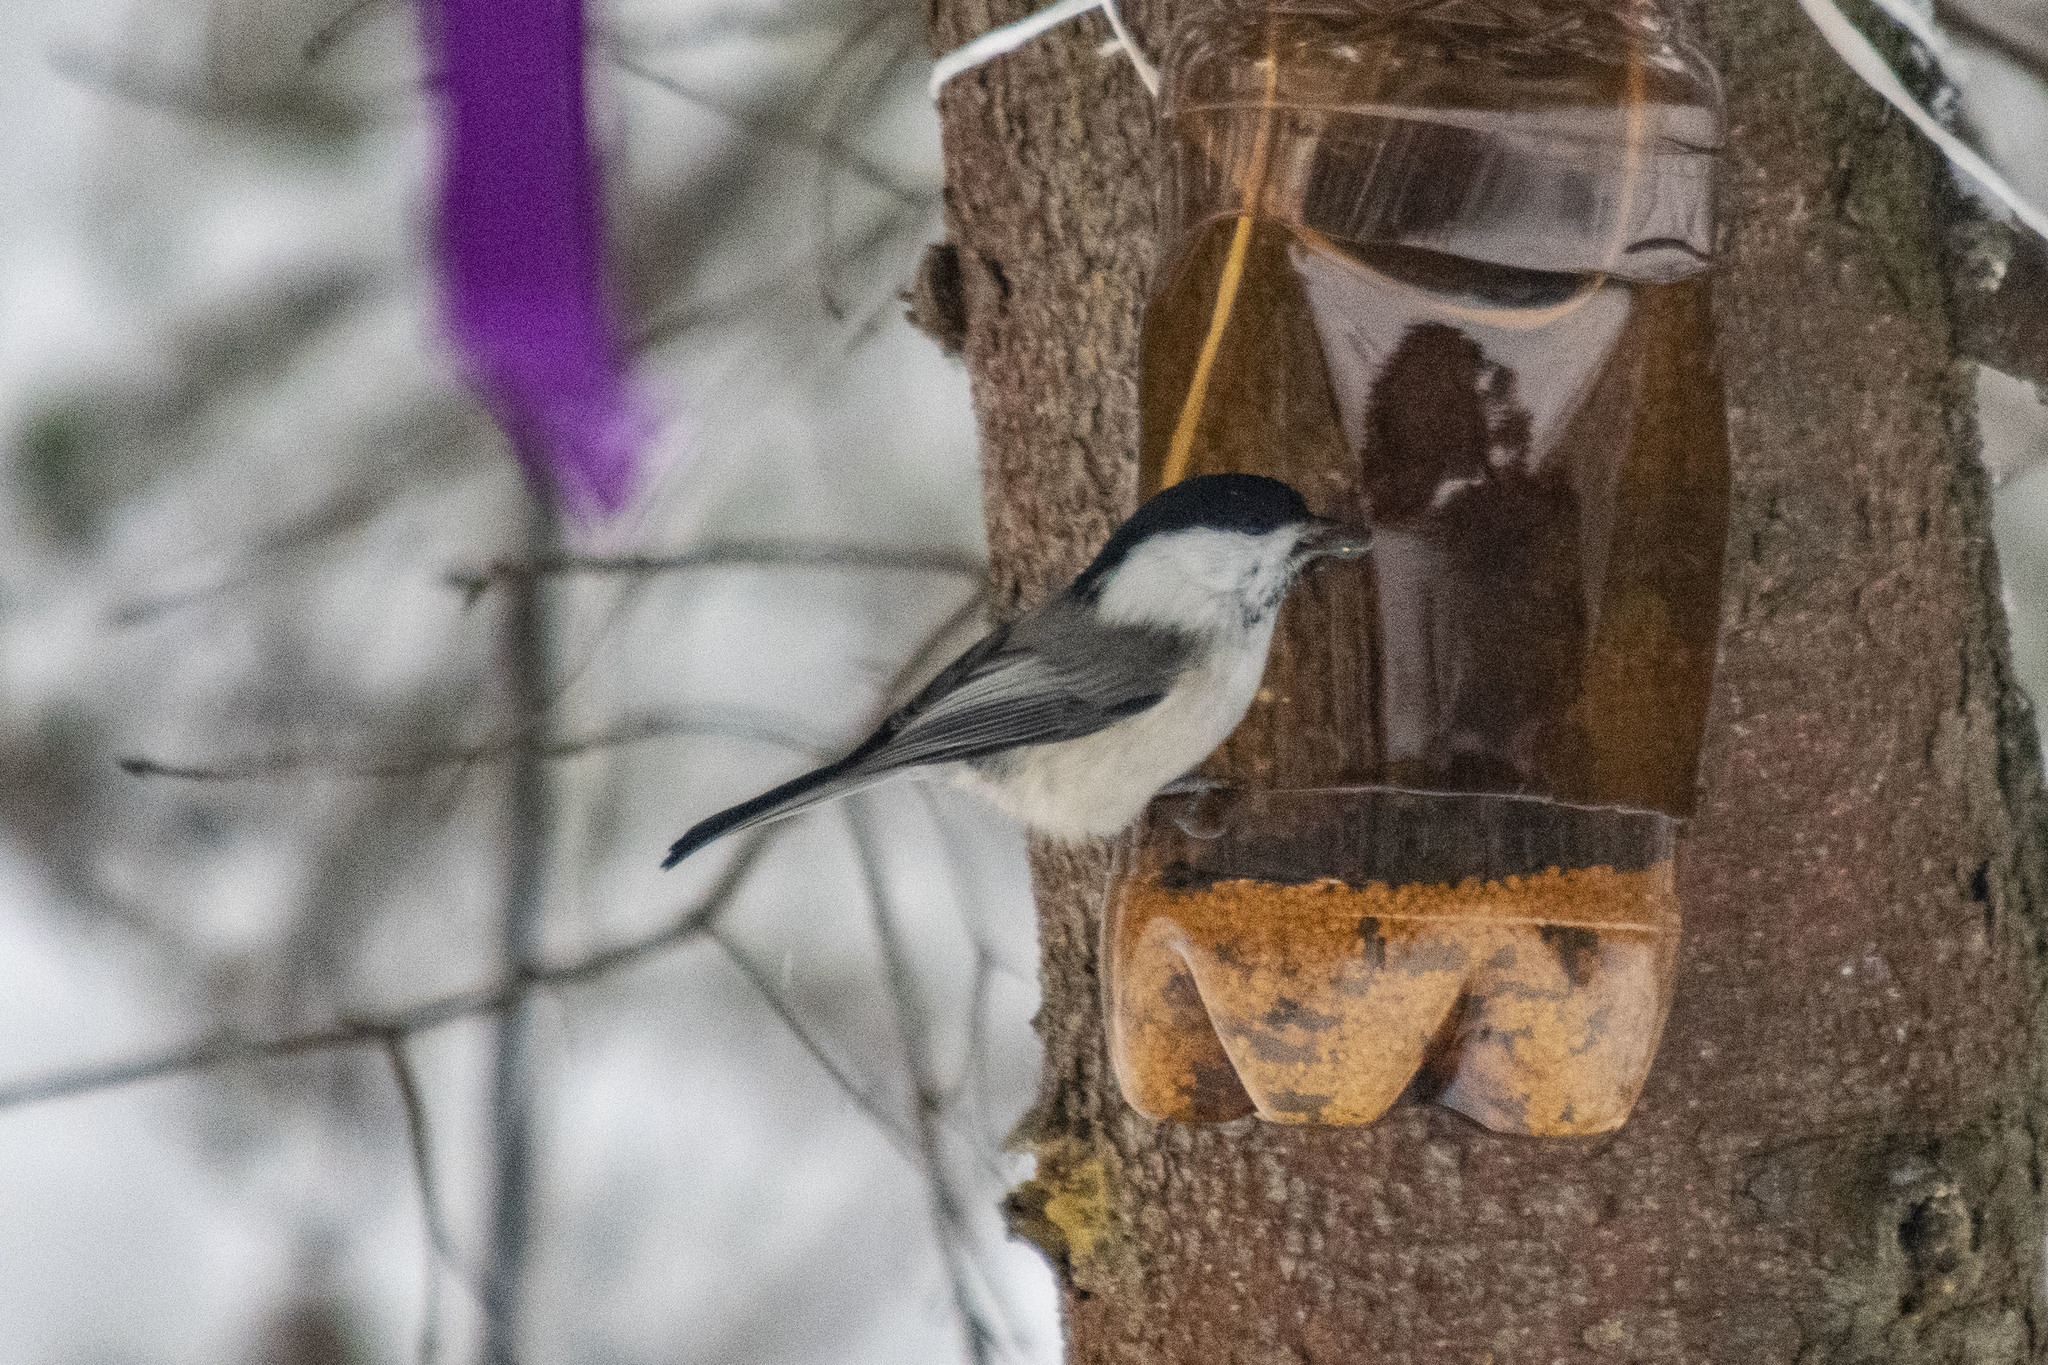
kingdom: Animalia
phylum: Chordata
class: Aves
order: Passeriformes
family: Paridae
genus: Poecile
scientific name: Poecile montanus
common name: Willow tit
